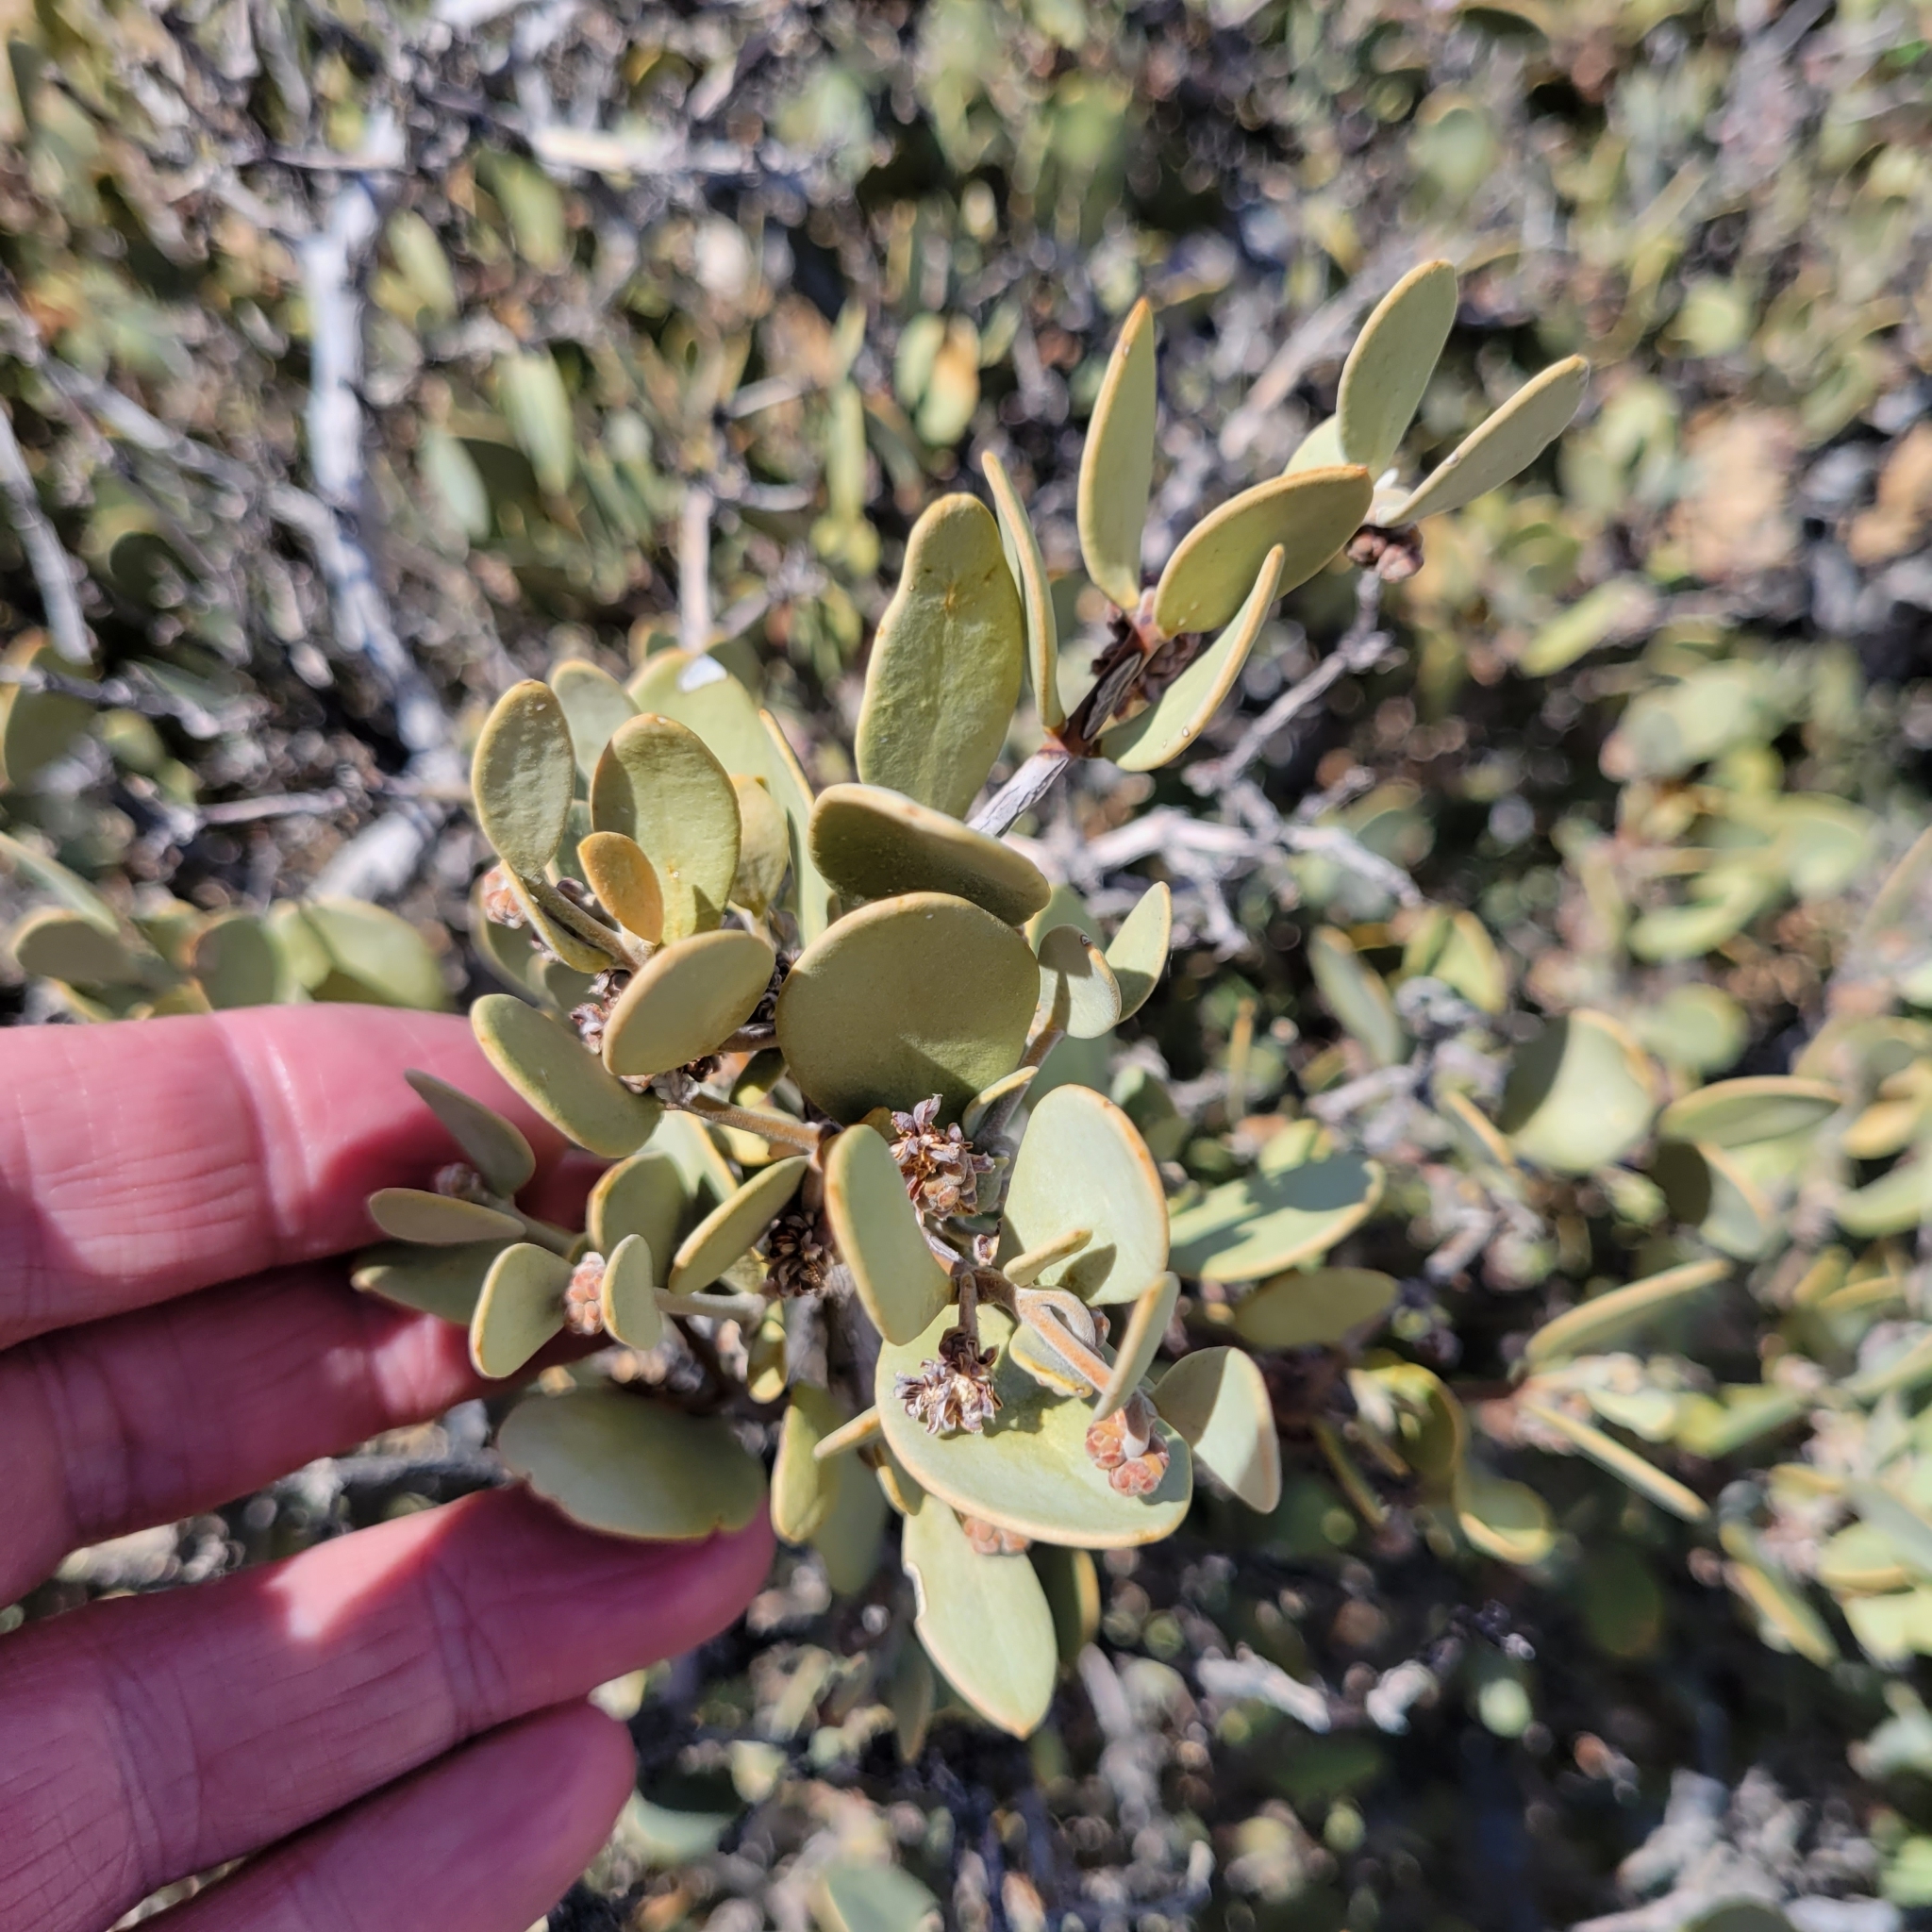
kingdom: Plantae
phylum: Tracheophyta
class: Magnoliopsida
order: Caryophyllales
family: Simmondsiaceae
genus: Simmondsia
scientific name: Simmondsia chinensis
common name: Jojoba
